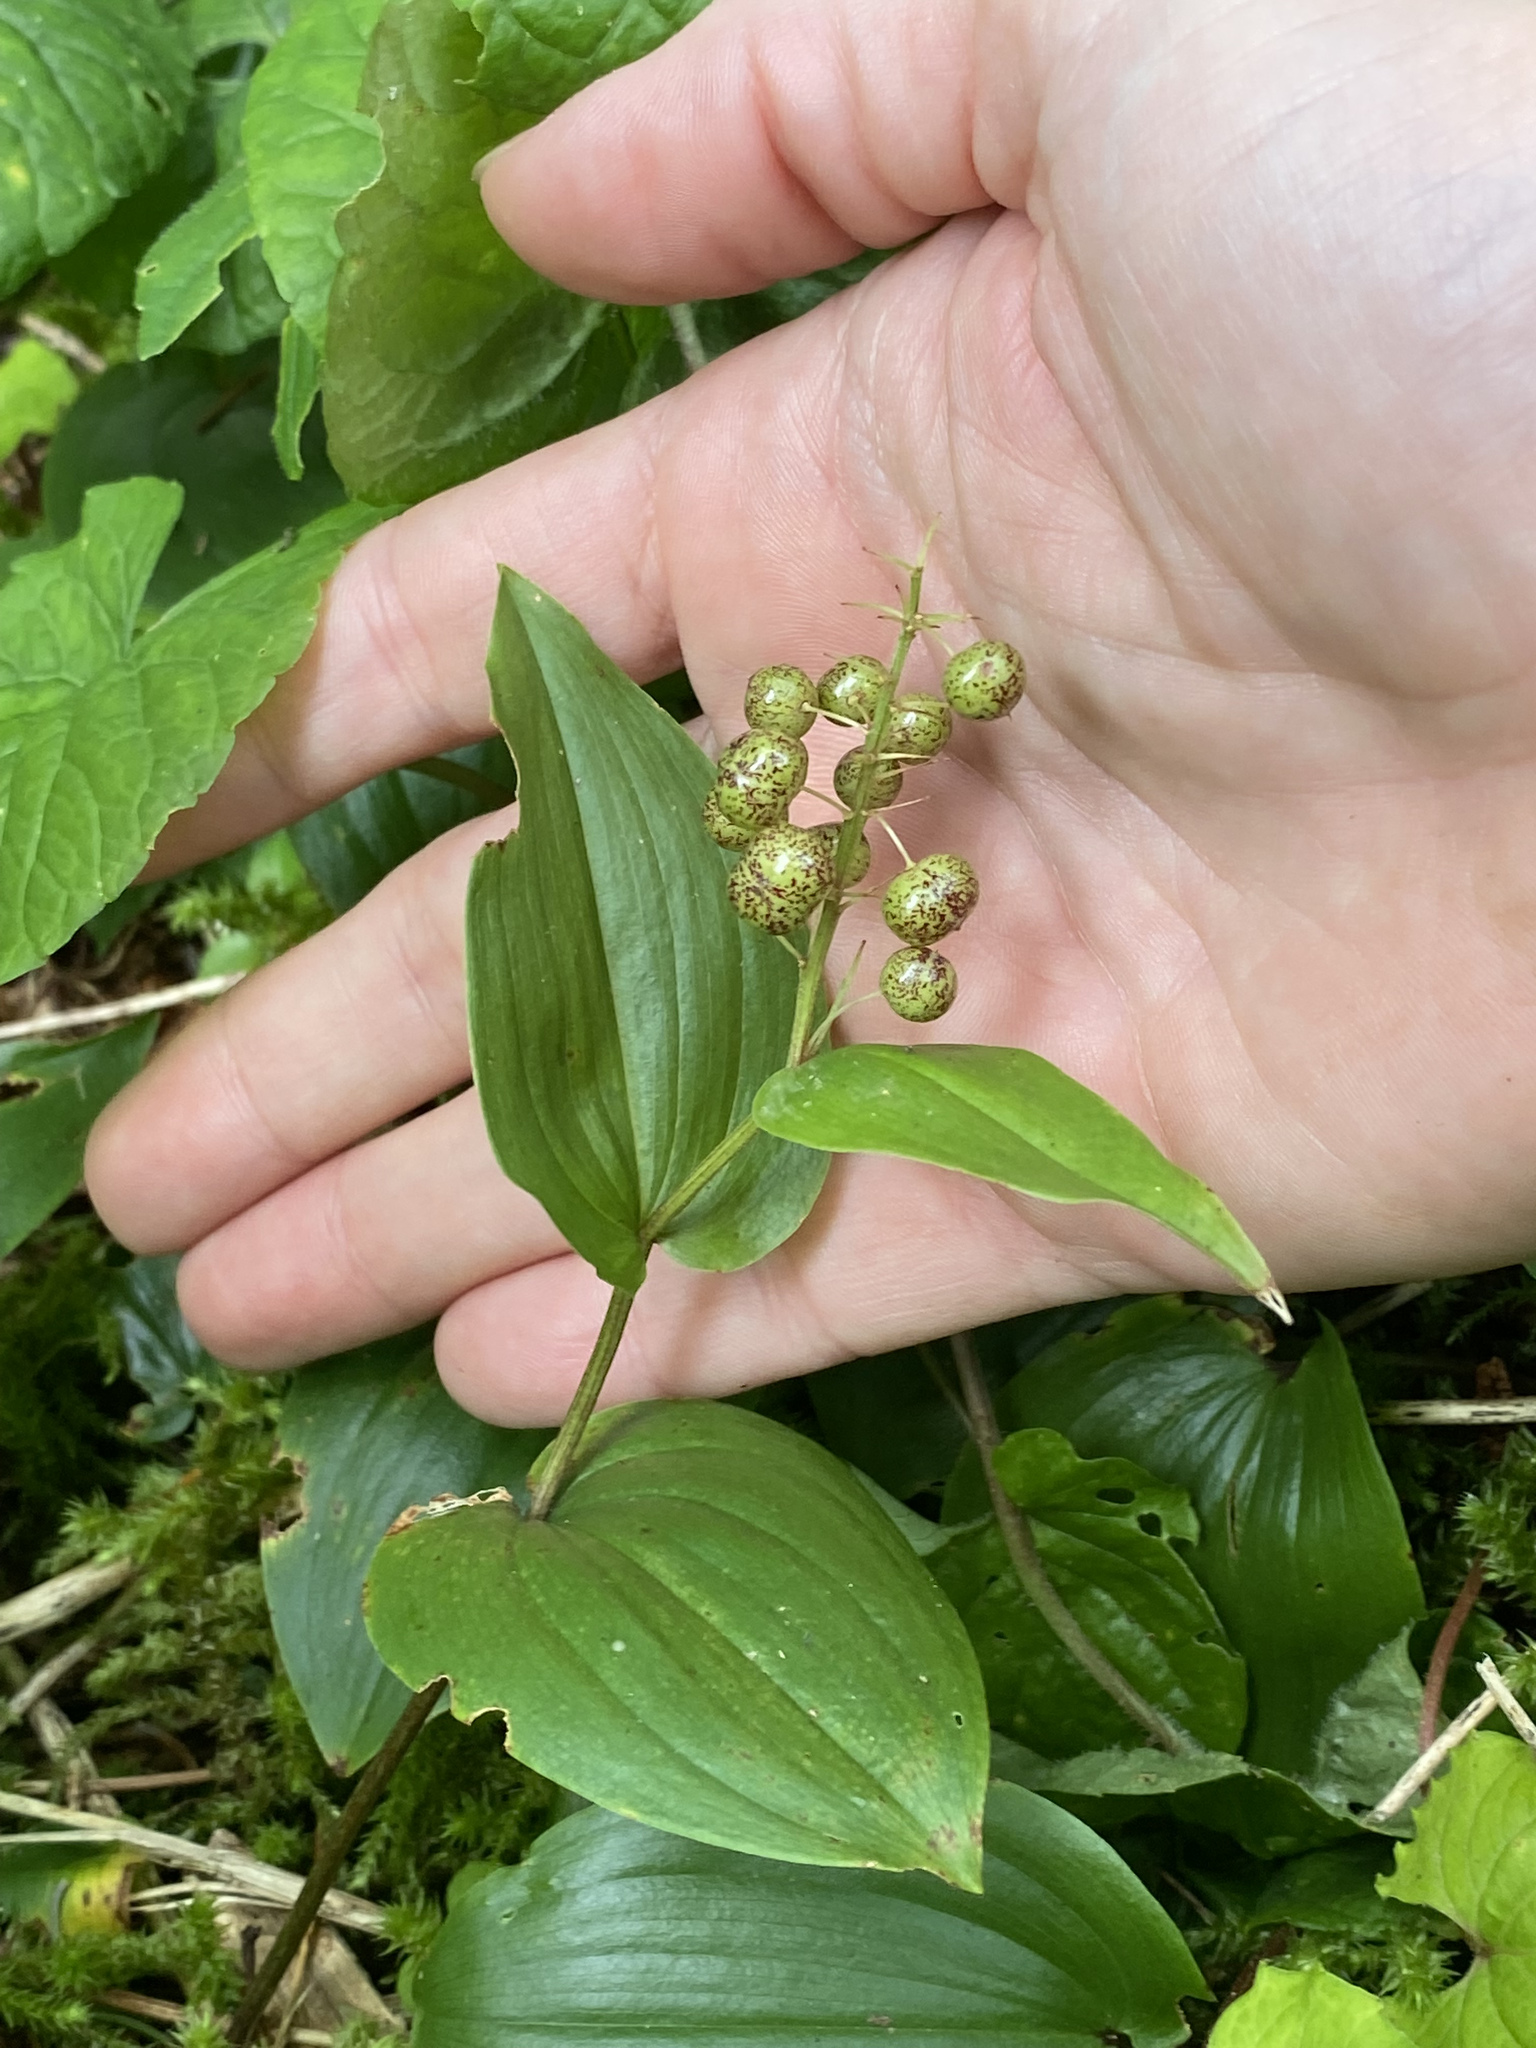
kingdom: Plantae
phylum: Tracheophyta
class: Liliopsida
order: Asparagales
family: Asparagaceae
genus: Maianthemum
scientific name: Maianthemum canadense
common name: False lily-of-the-valley
